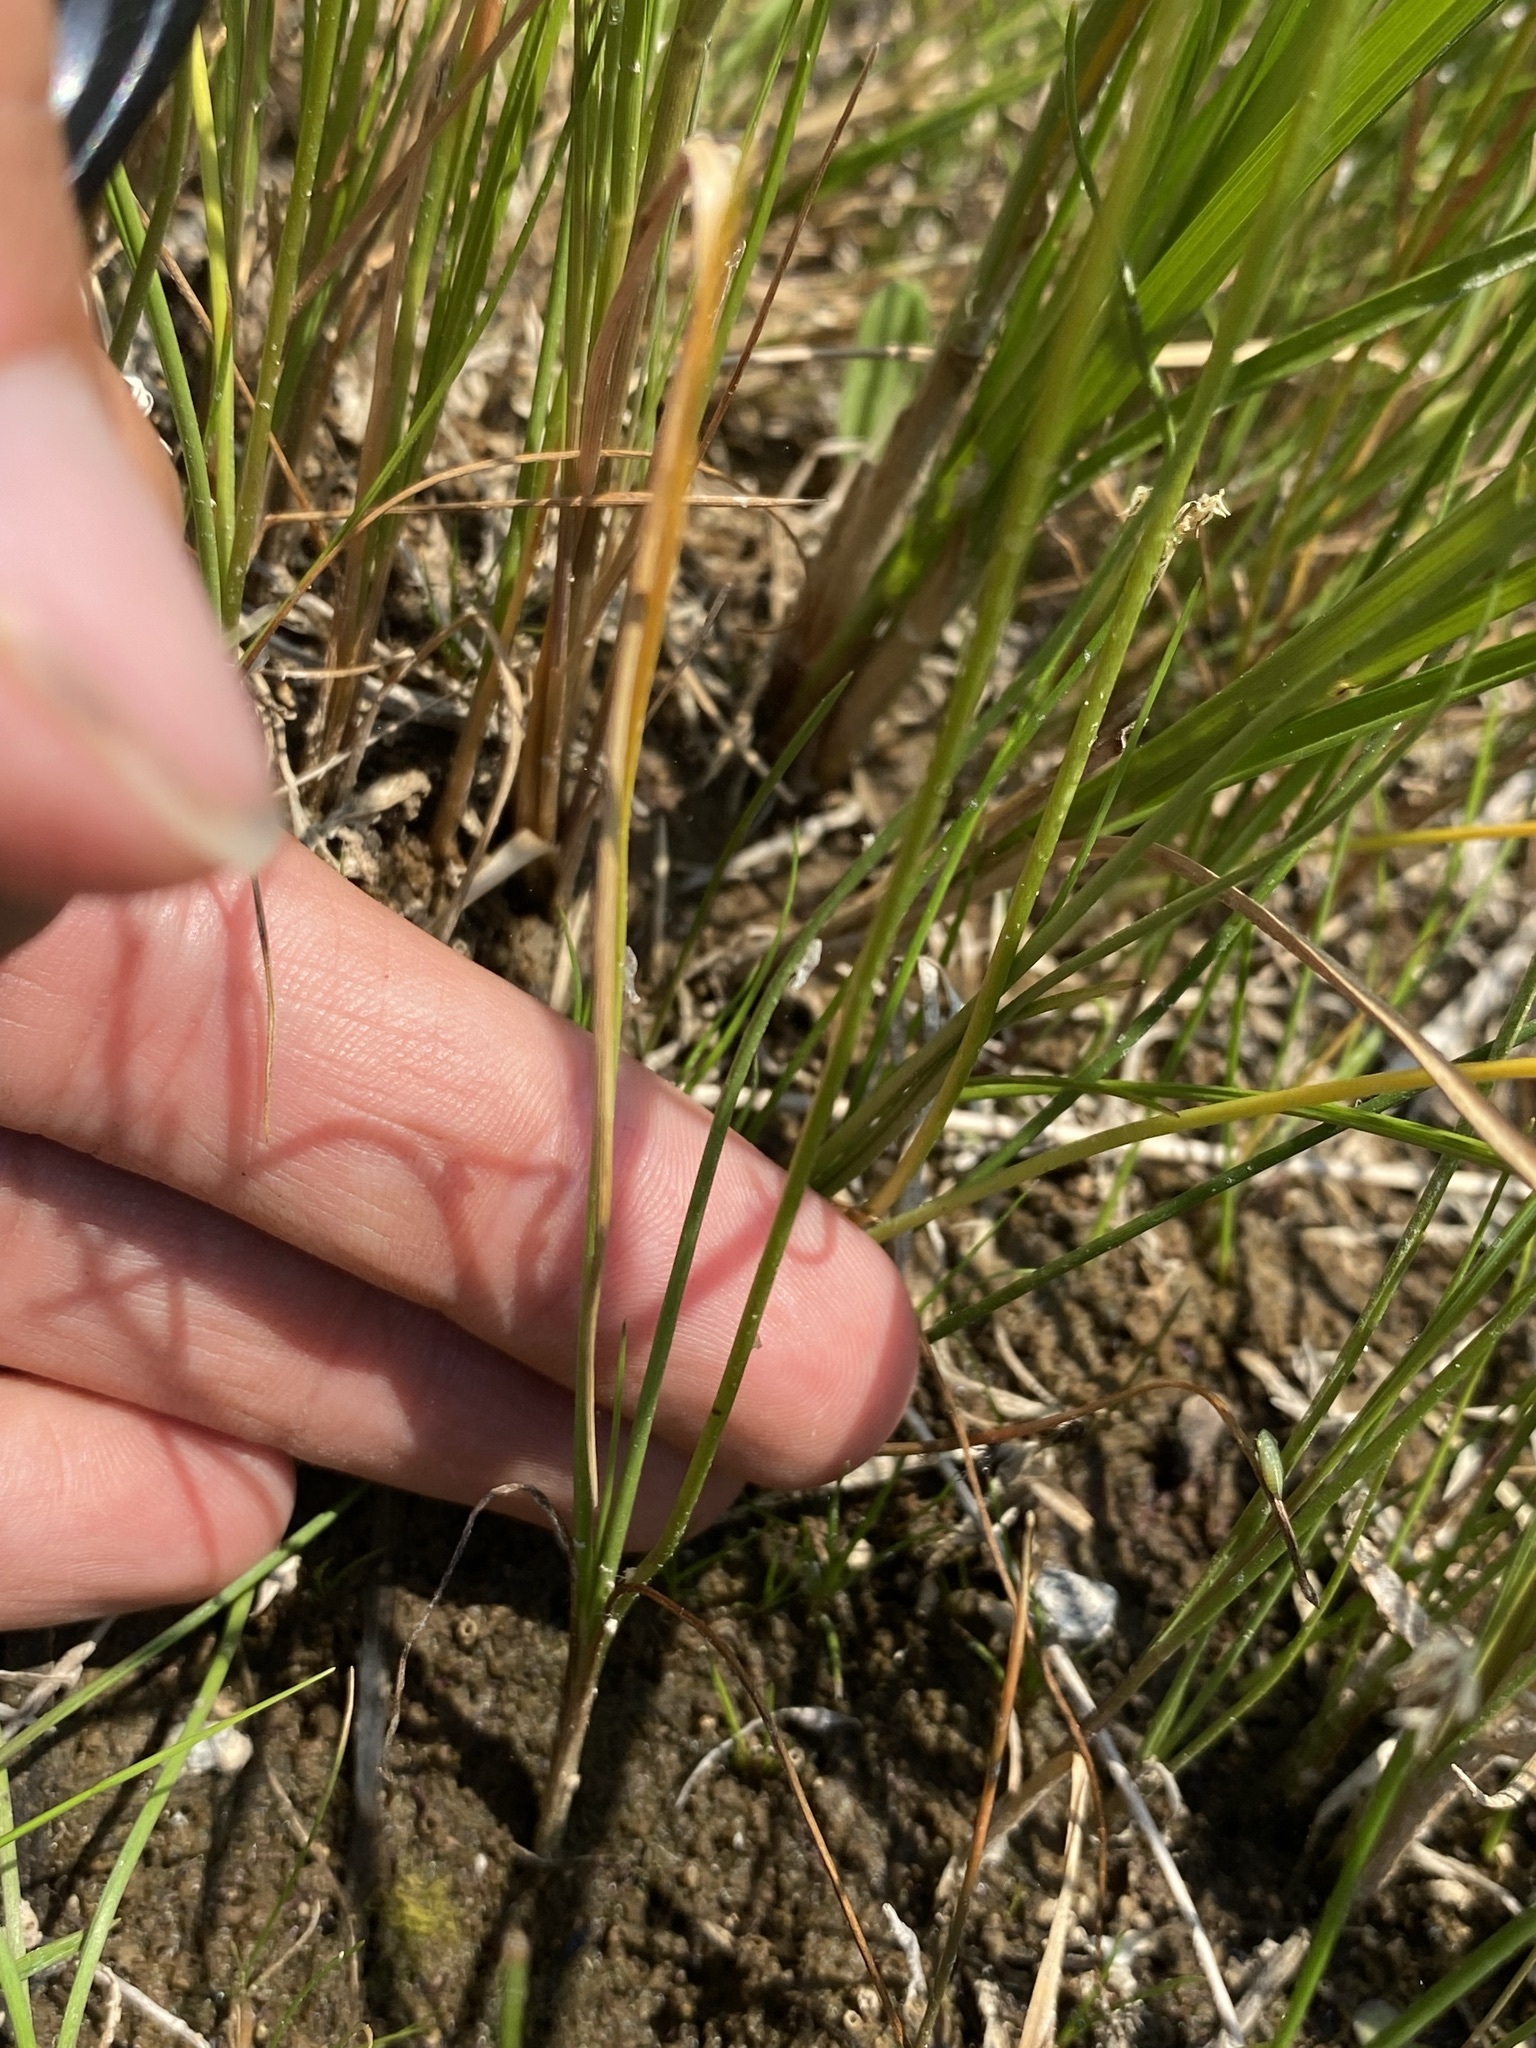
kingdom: Plantae
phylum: Tracheophyta
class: Liliopsida
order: Alismatales
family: Juncaginaceae
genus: Triglochin
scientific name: Triglochin palustris
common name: Marsh arrowgrass
